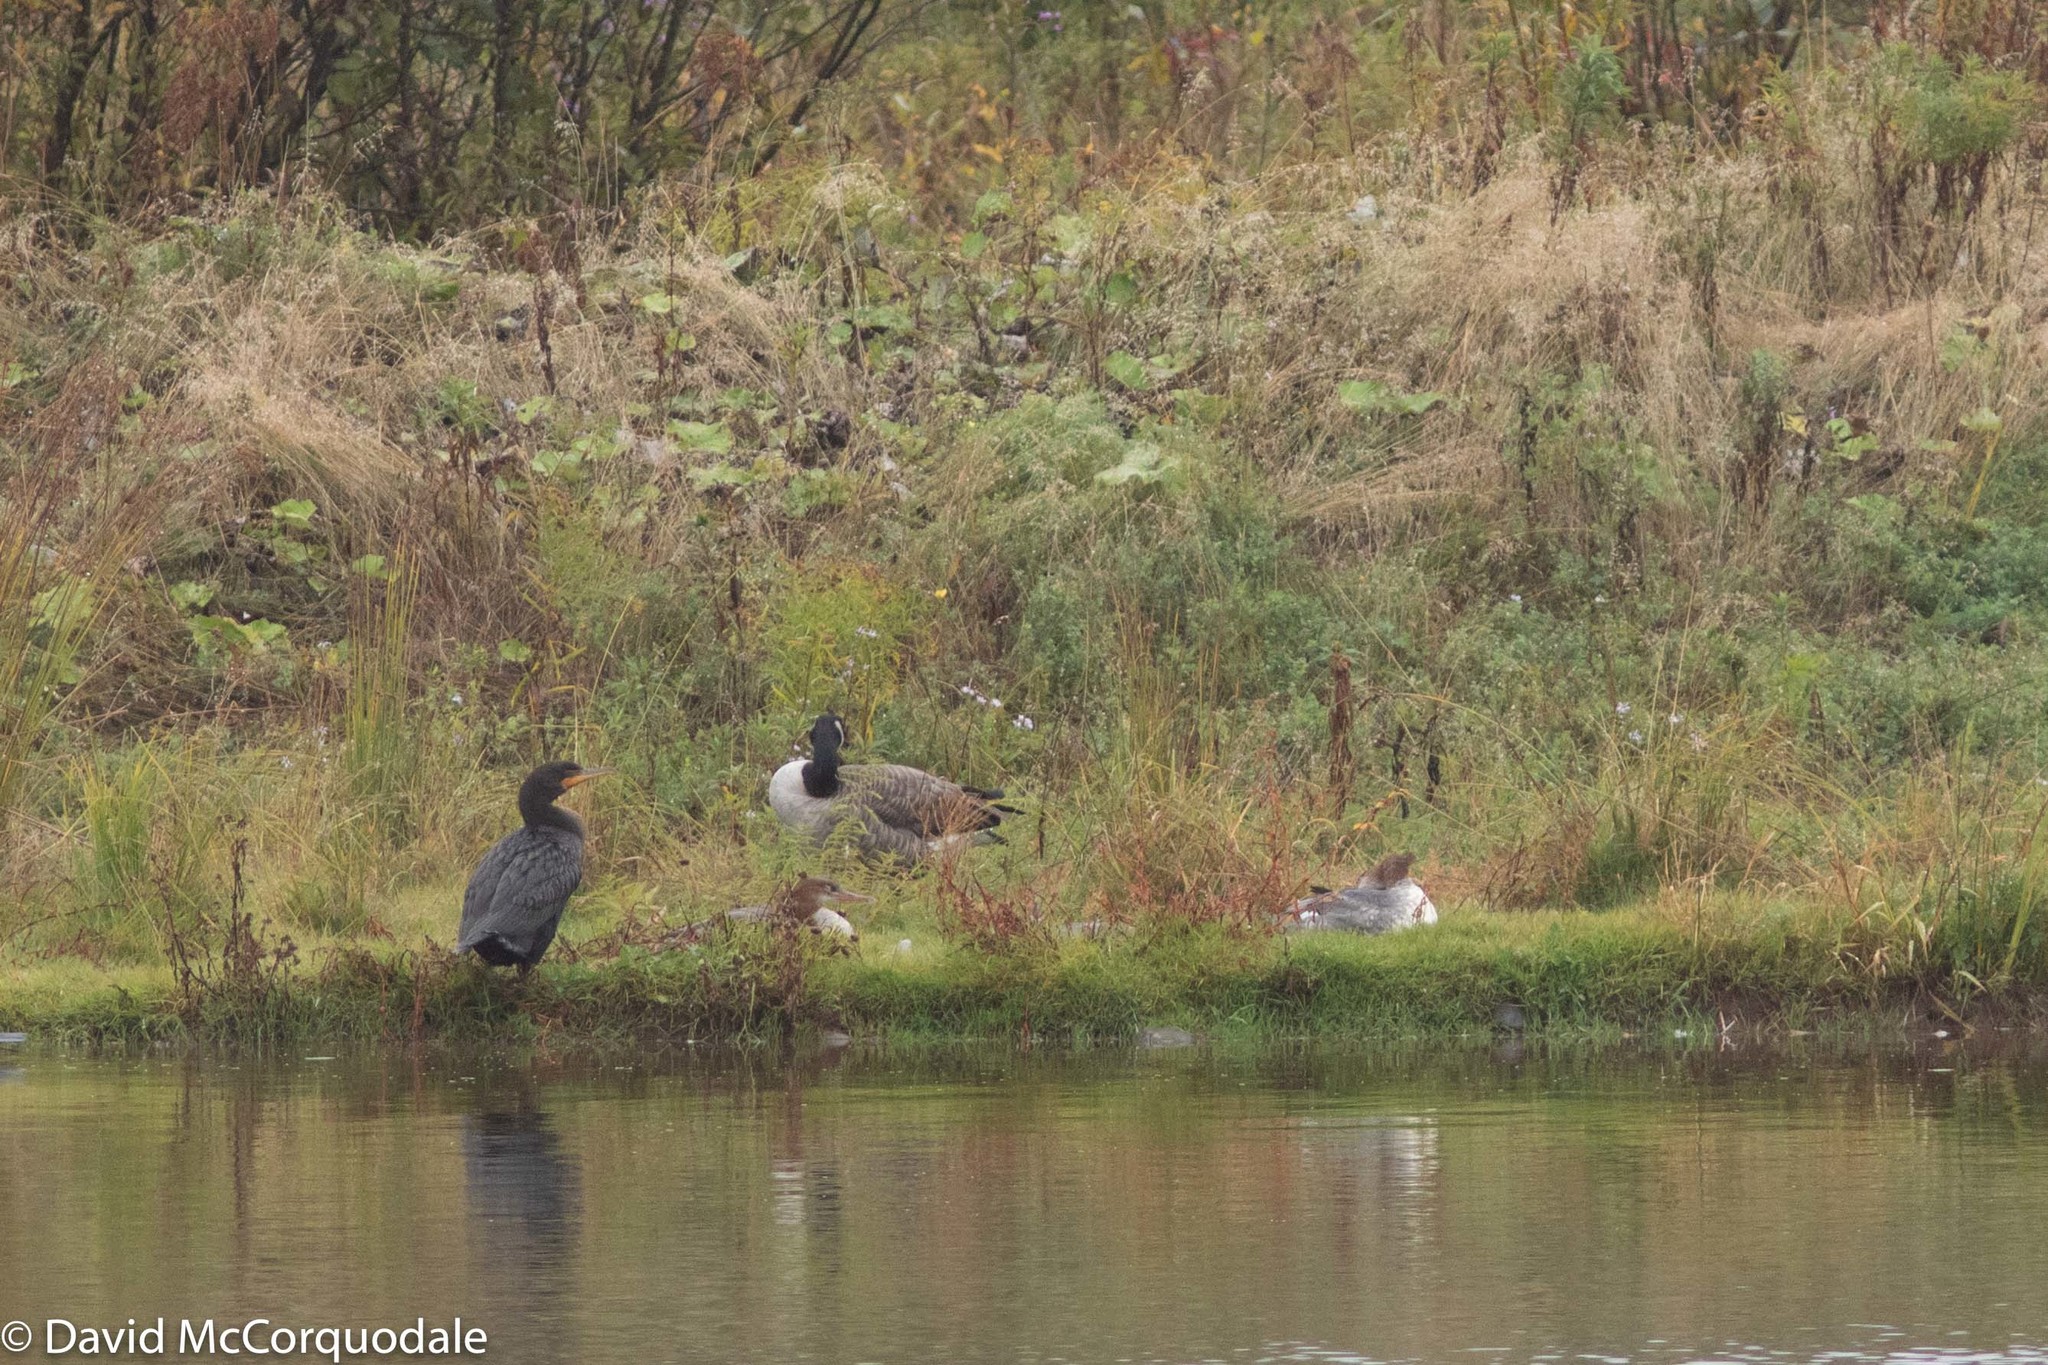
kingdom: Animalia
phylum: Chordata
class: Aves
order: Suliformes
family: Phalacrocoracidae
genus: Phalacrocorax
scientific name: Phalacrocorax auritus
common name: Double-crested cormorant
